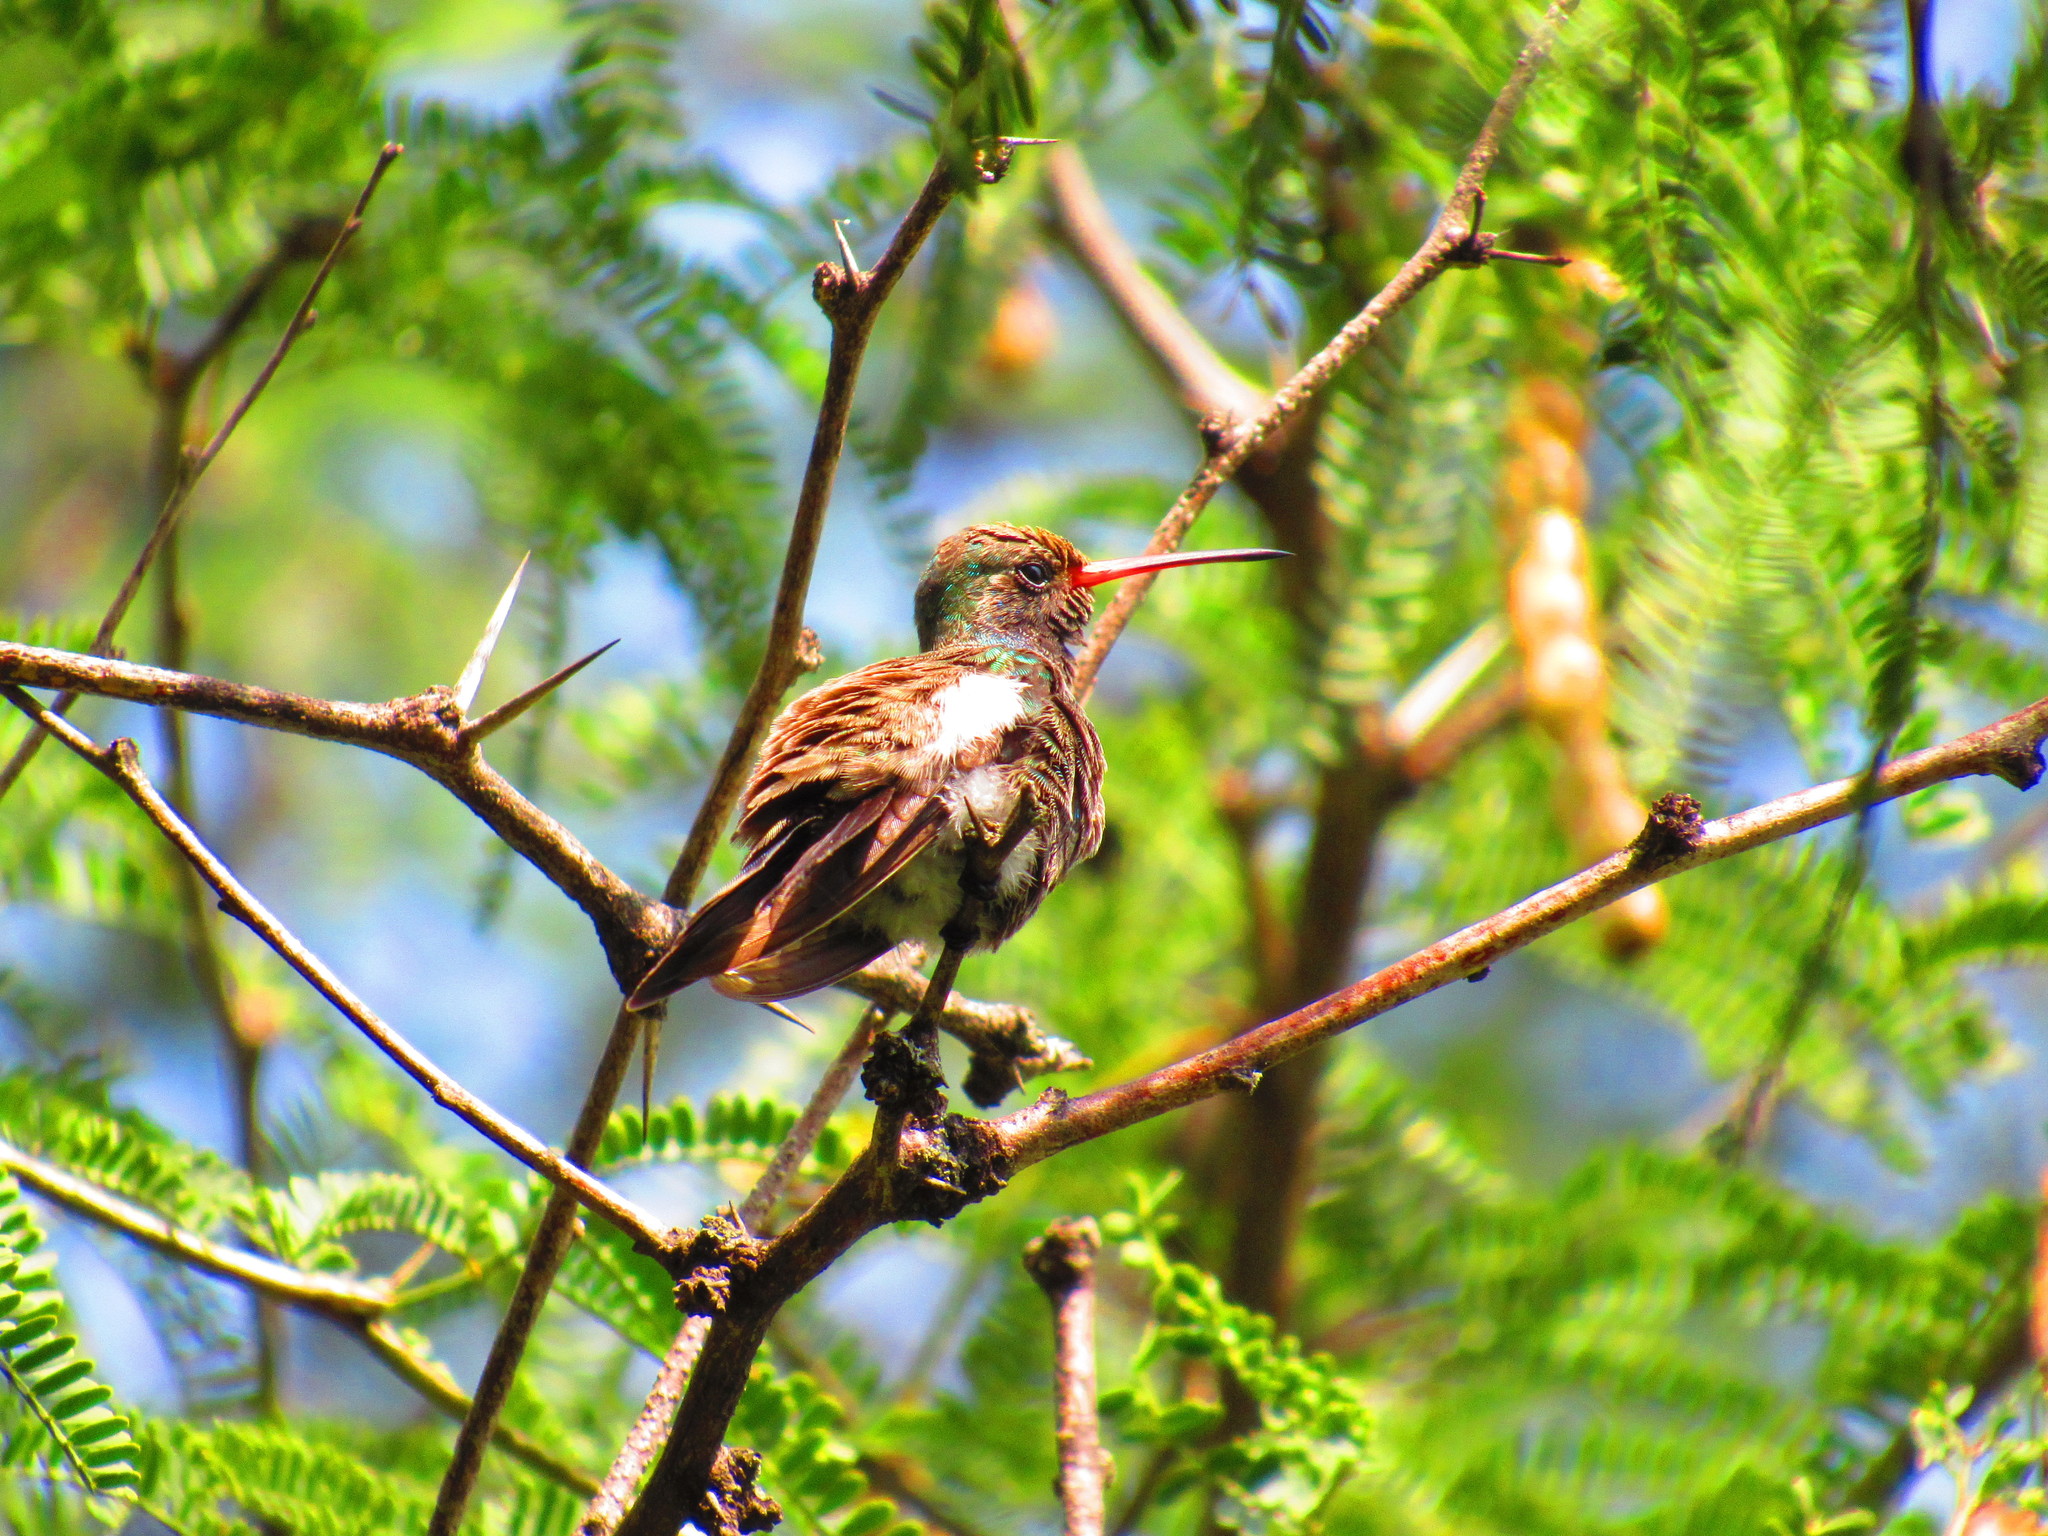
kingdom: Animalia
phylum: Chordata
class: Aves
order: Apodiformes
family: Trochilidae
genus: Cynanthus
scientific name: Cynanthus latirostris
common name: Broad-billed hummingbird
